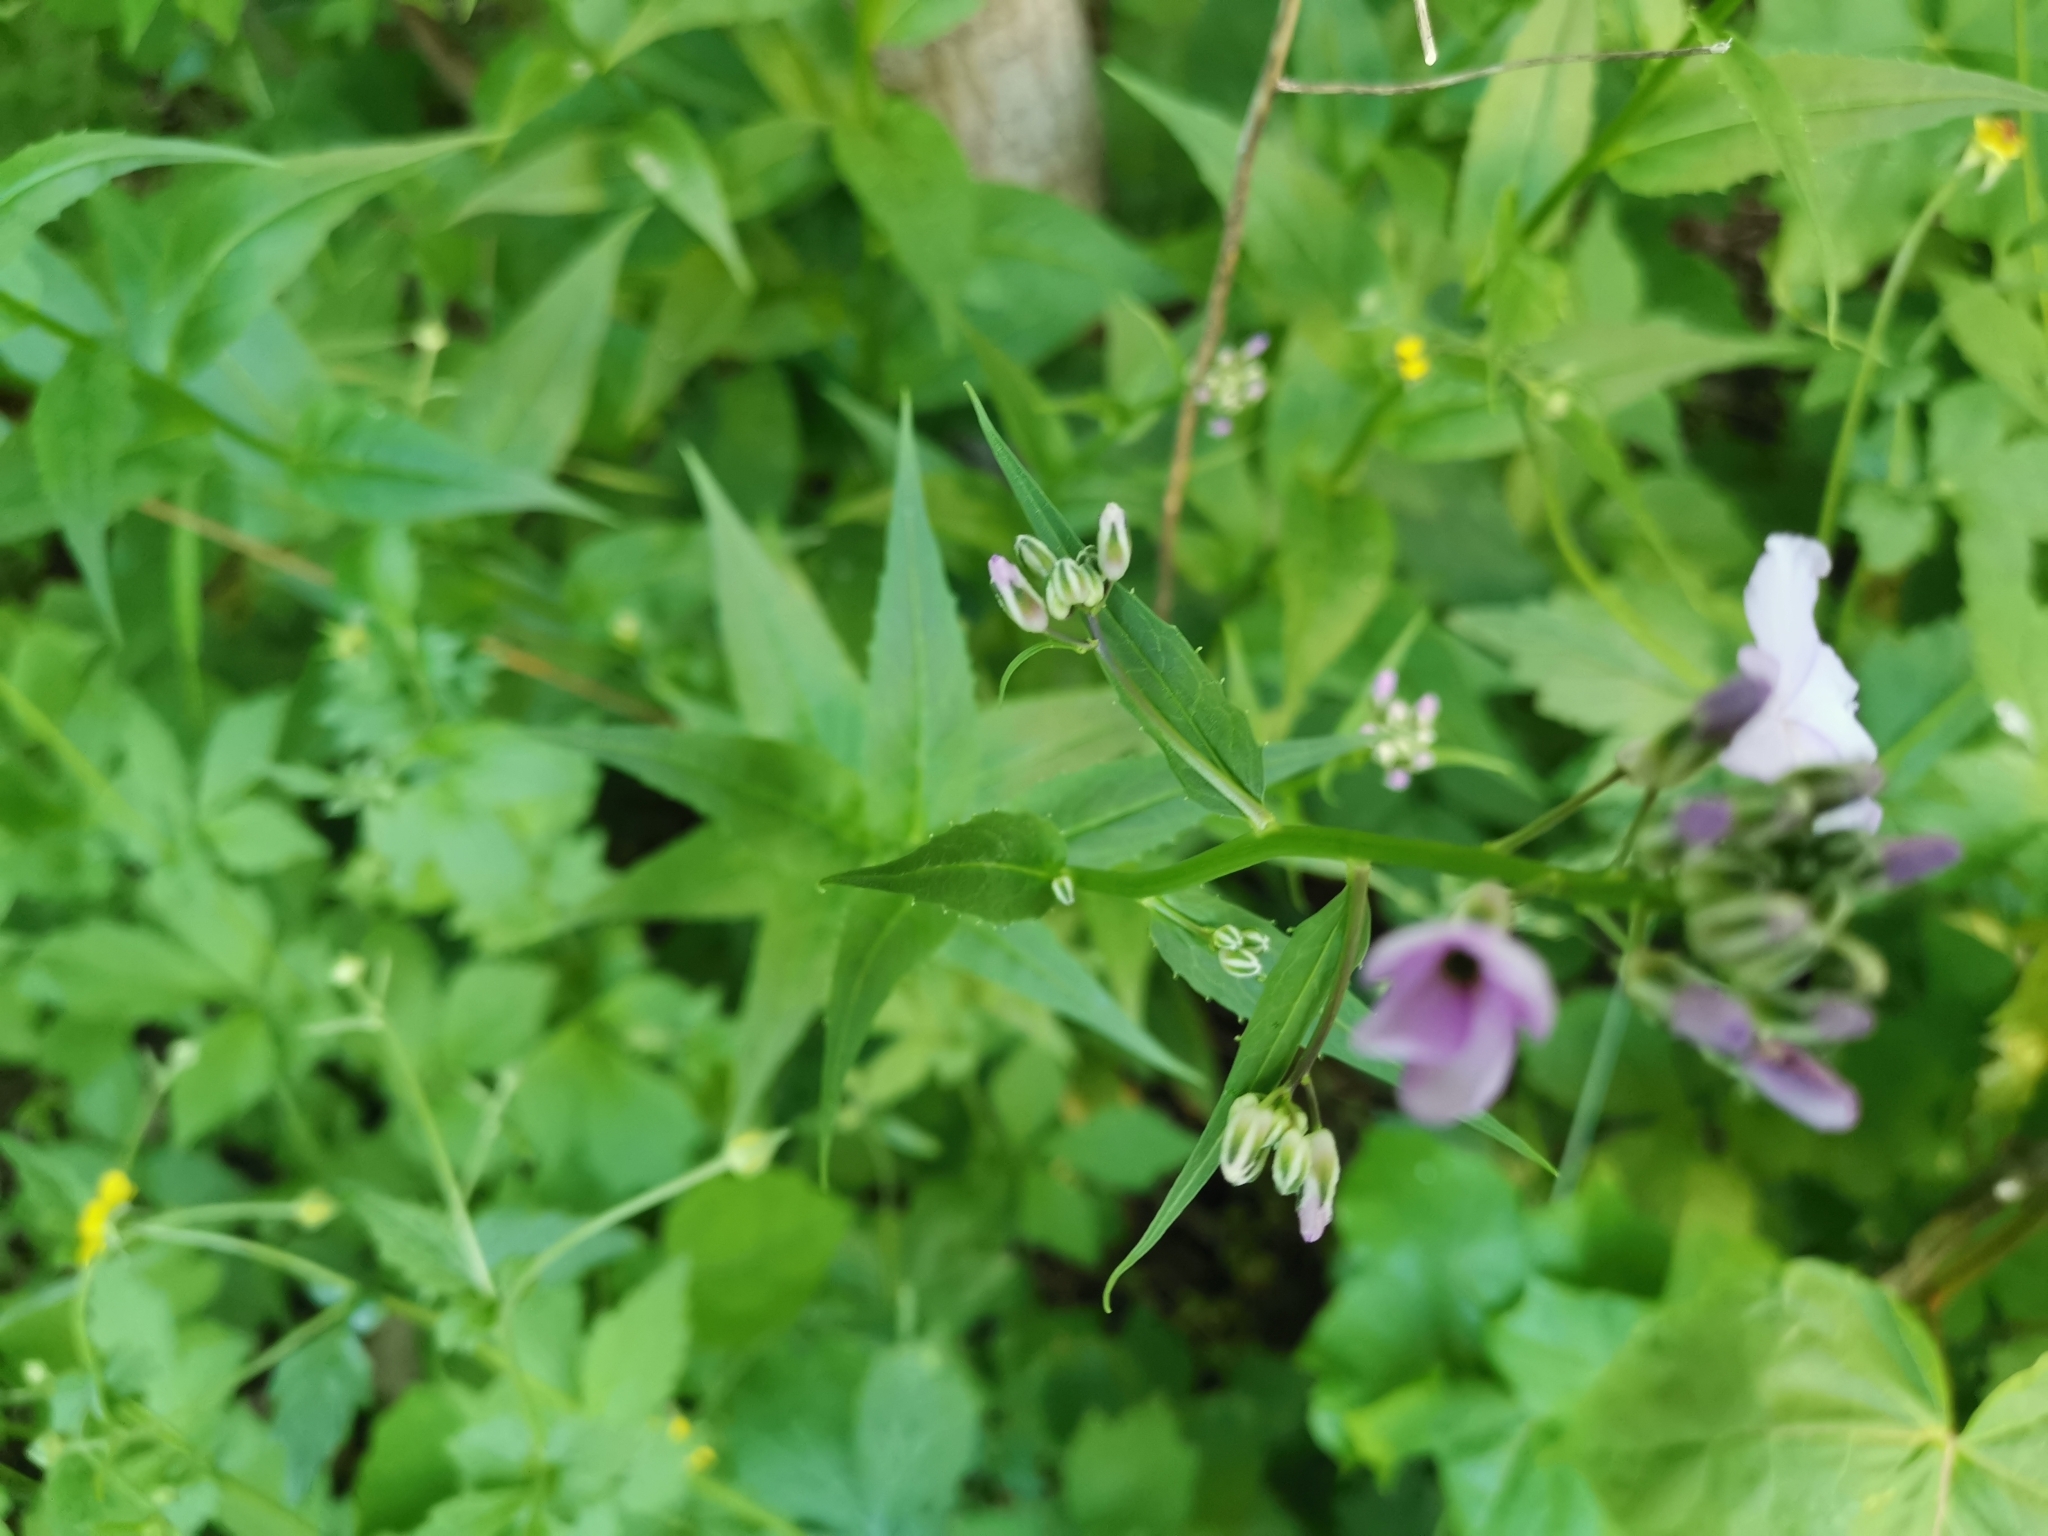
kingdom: Plantae
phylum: Tracheophyta
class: Magnoliopsida
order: Brassicales
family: Brassicaceae
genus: Hesperis
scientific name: Hesperis matronalis
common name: Dame's-violet
